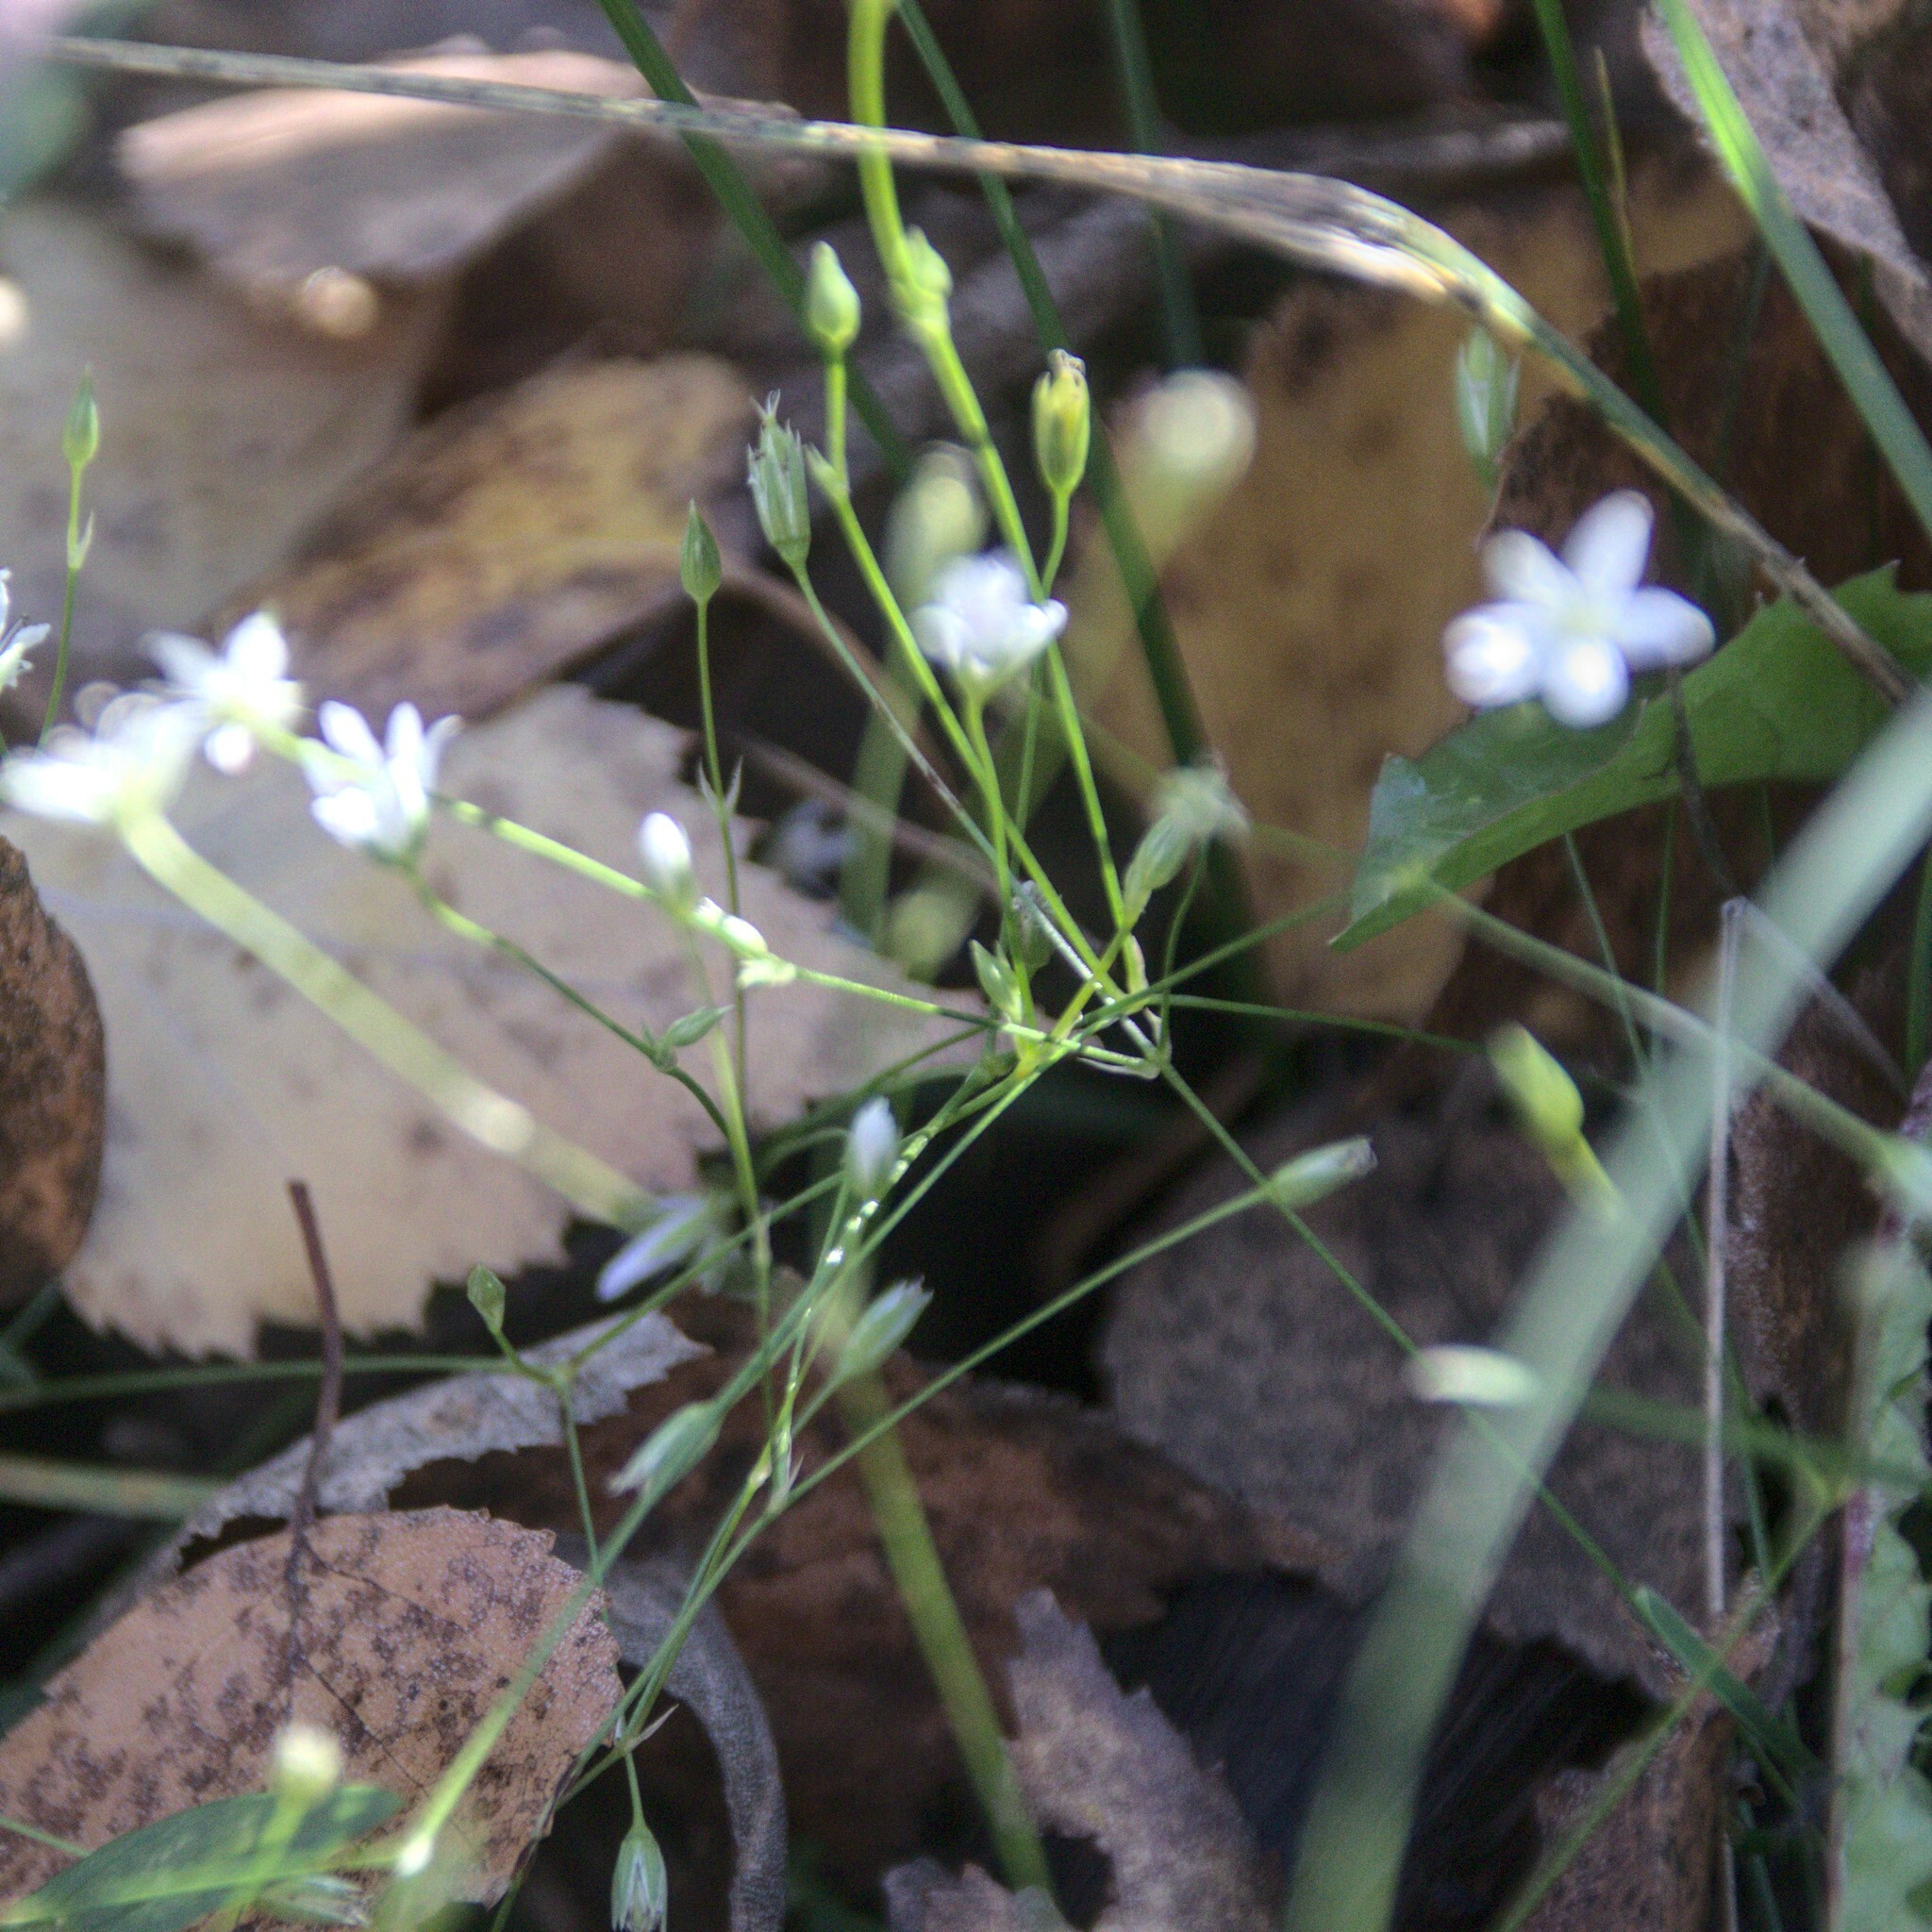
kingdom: Plantae
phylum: Tracheophyta
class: Magnoliopsida
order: Caryophyllales
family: Caryophyllaceae
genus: Stellaria
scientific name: Stellaria graminea
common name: Grass-like starwort
